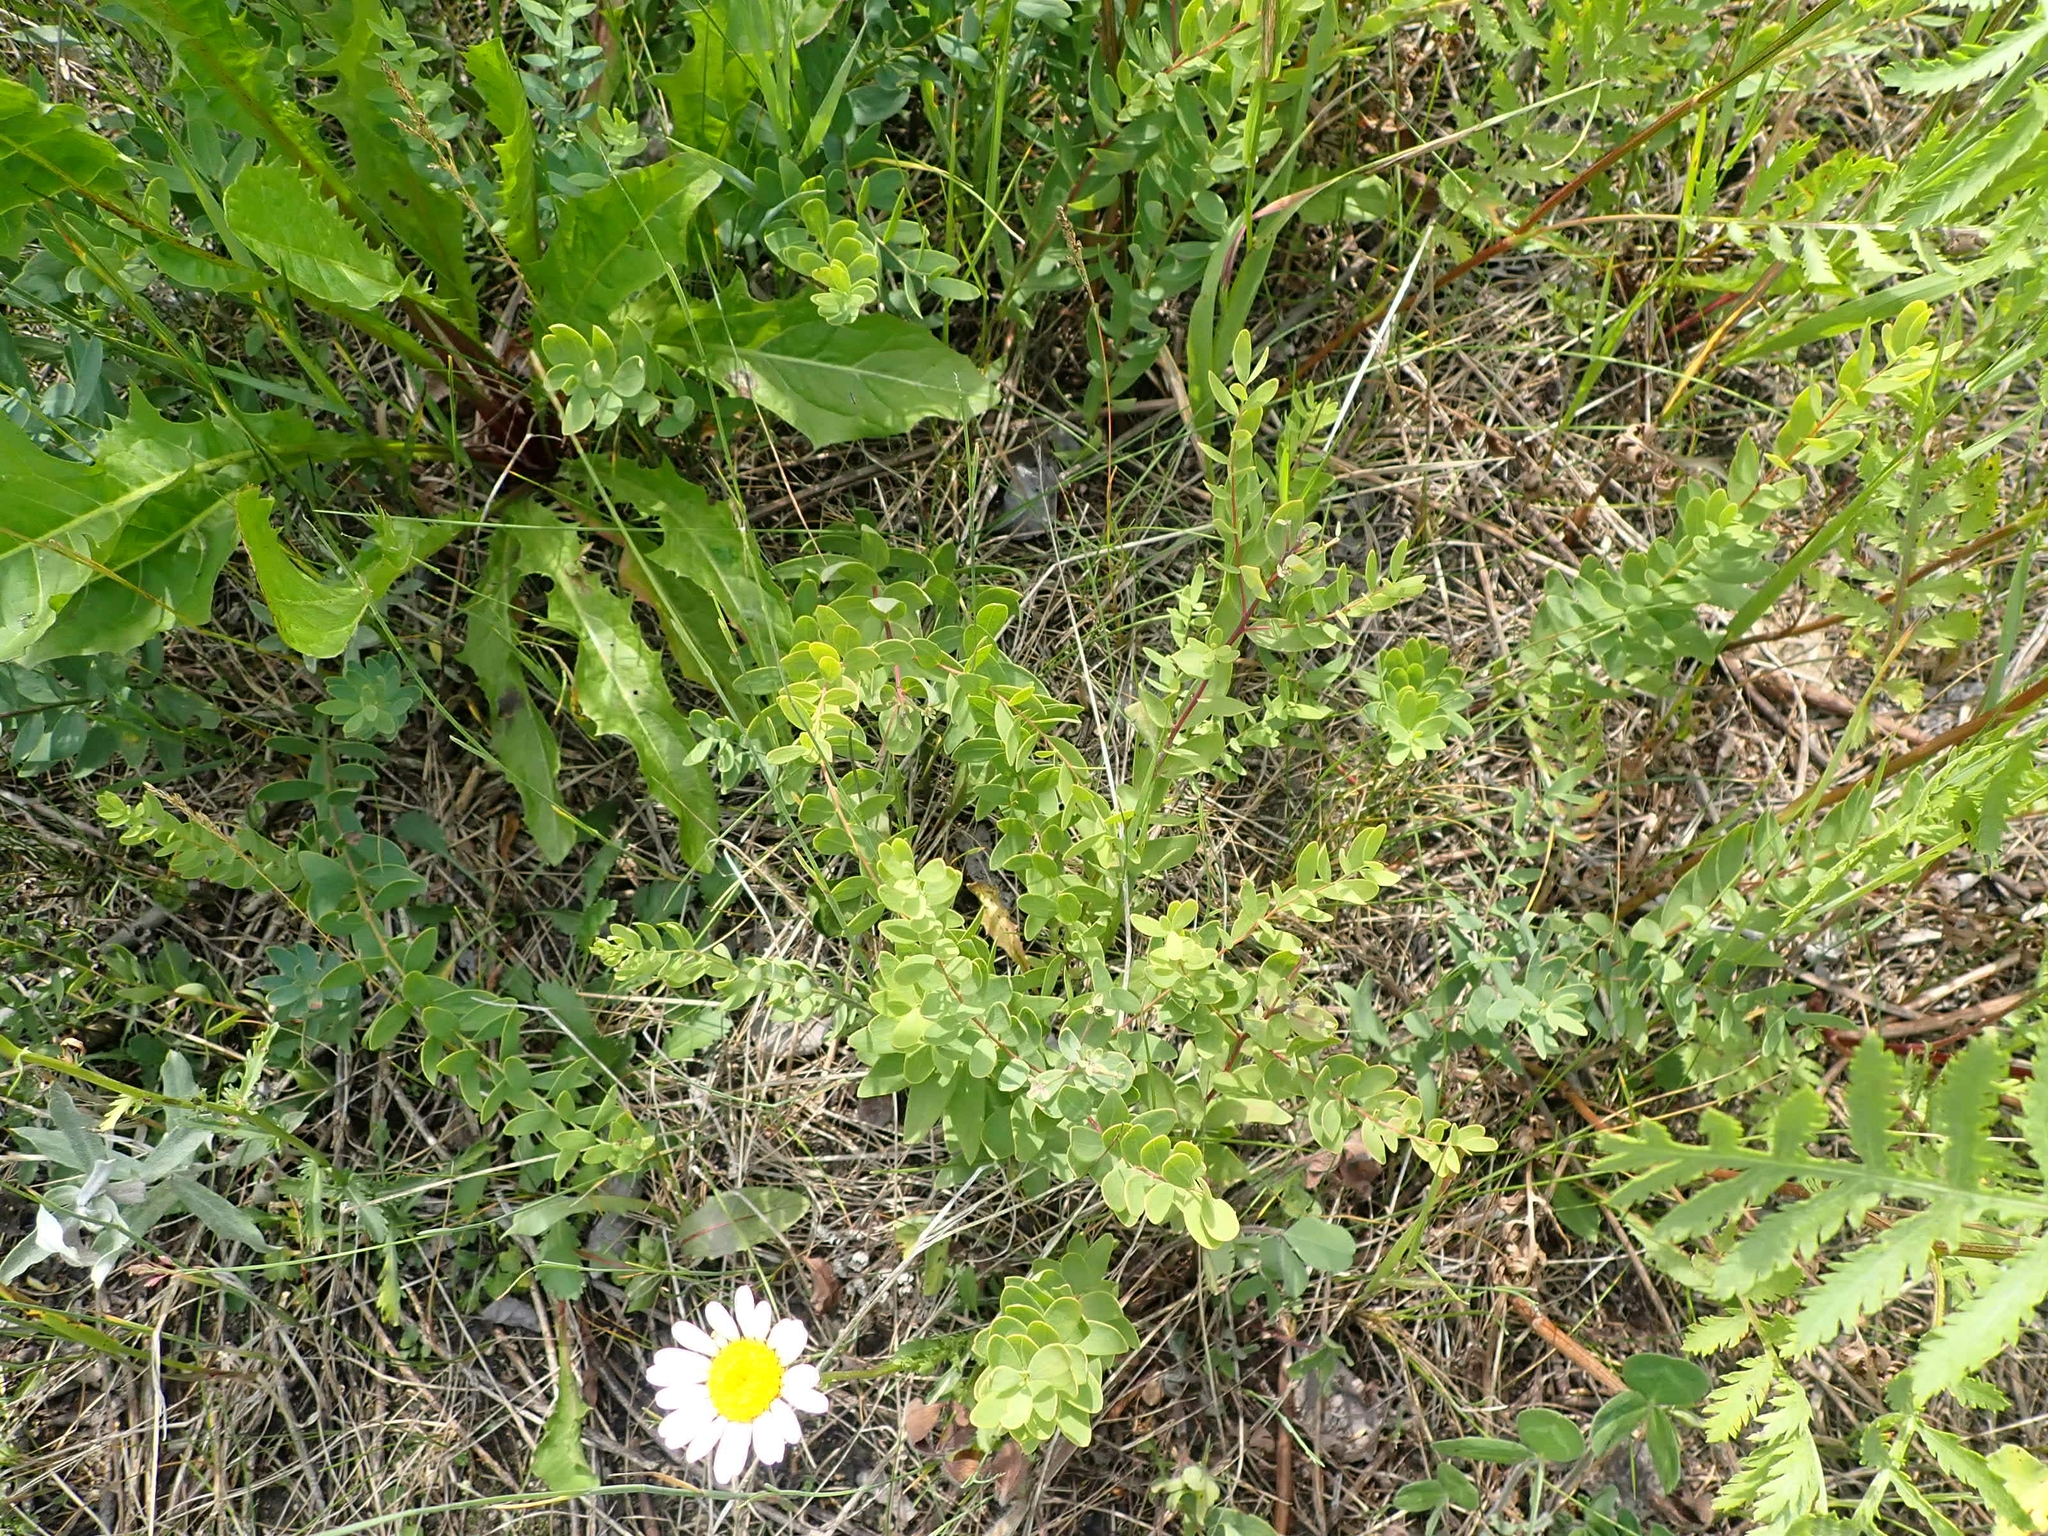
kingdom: Plantae
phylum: Tracheophyta
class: Magnoliopsida
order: Santalales
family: Comandraceae
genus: Comandra
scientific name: Comandra umbellata
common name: Bastard toadflax
